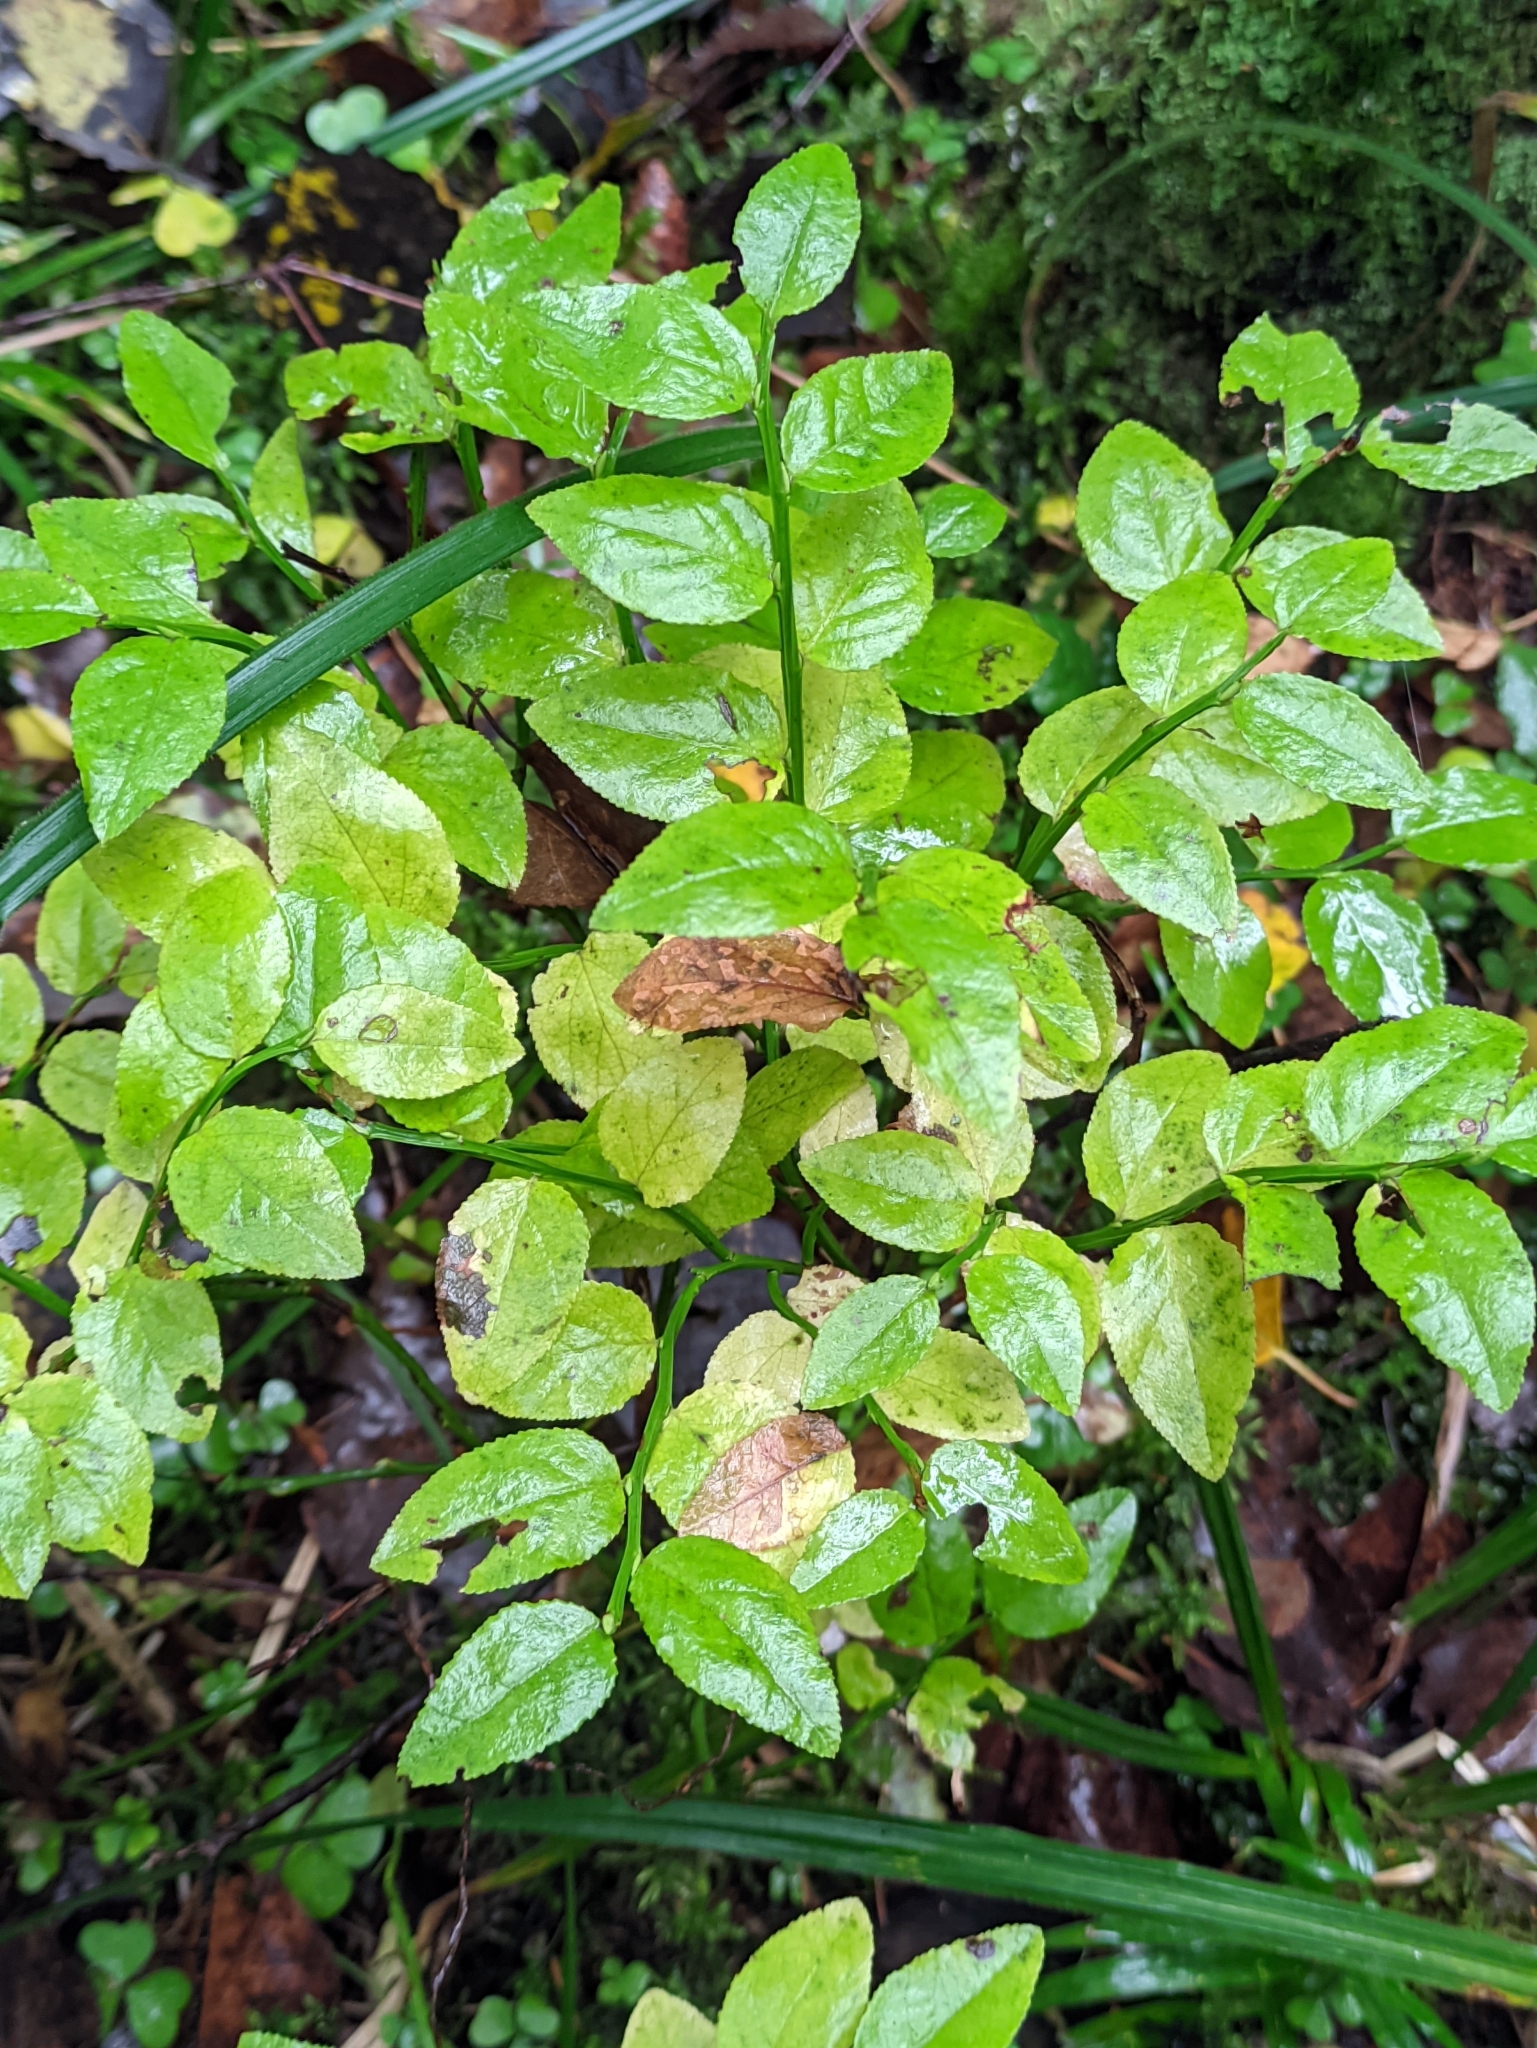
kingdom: Plantae
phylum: Tracheophyta
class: Magnoliopsida
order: Ericales
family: Ericaceae
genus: Vaccinium
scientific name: Vaccinium myrtillus
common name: Bilberry
